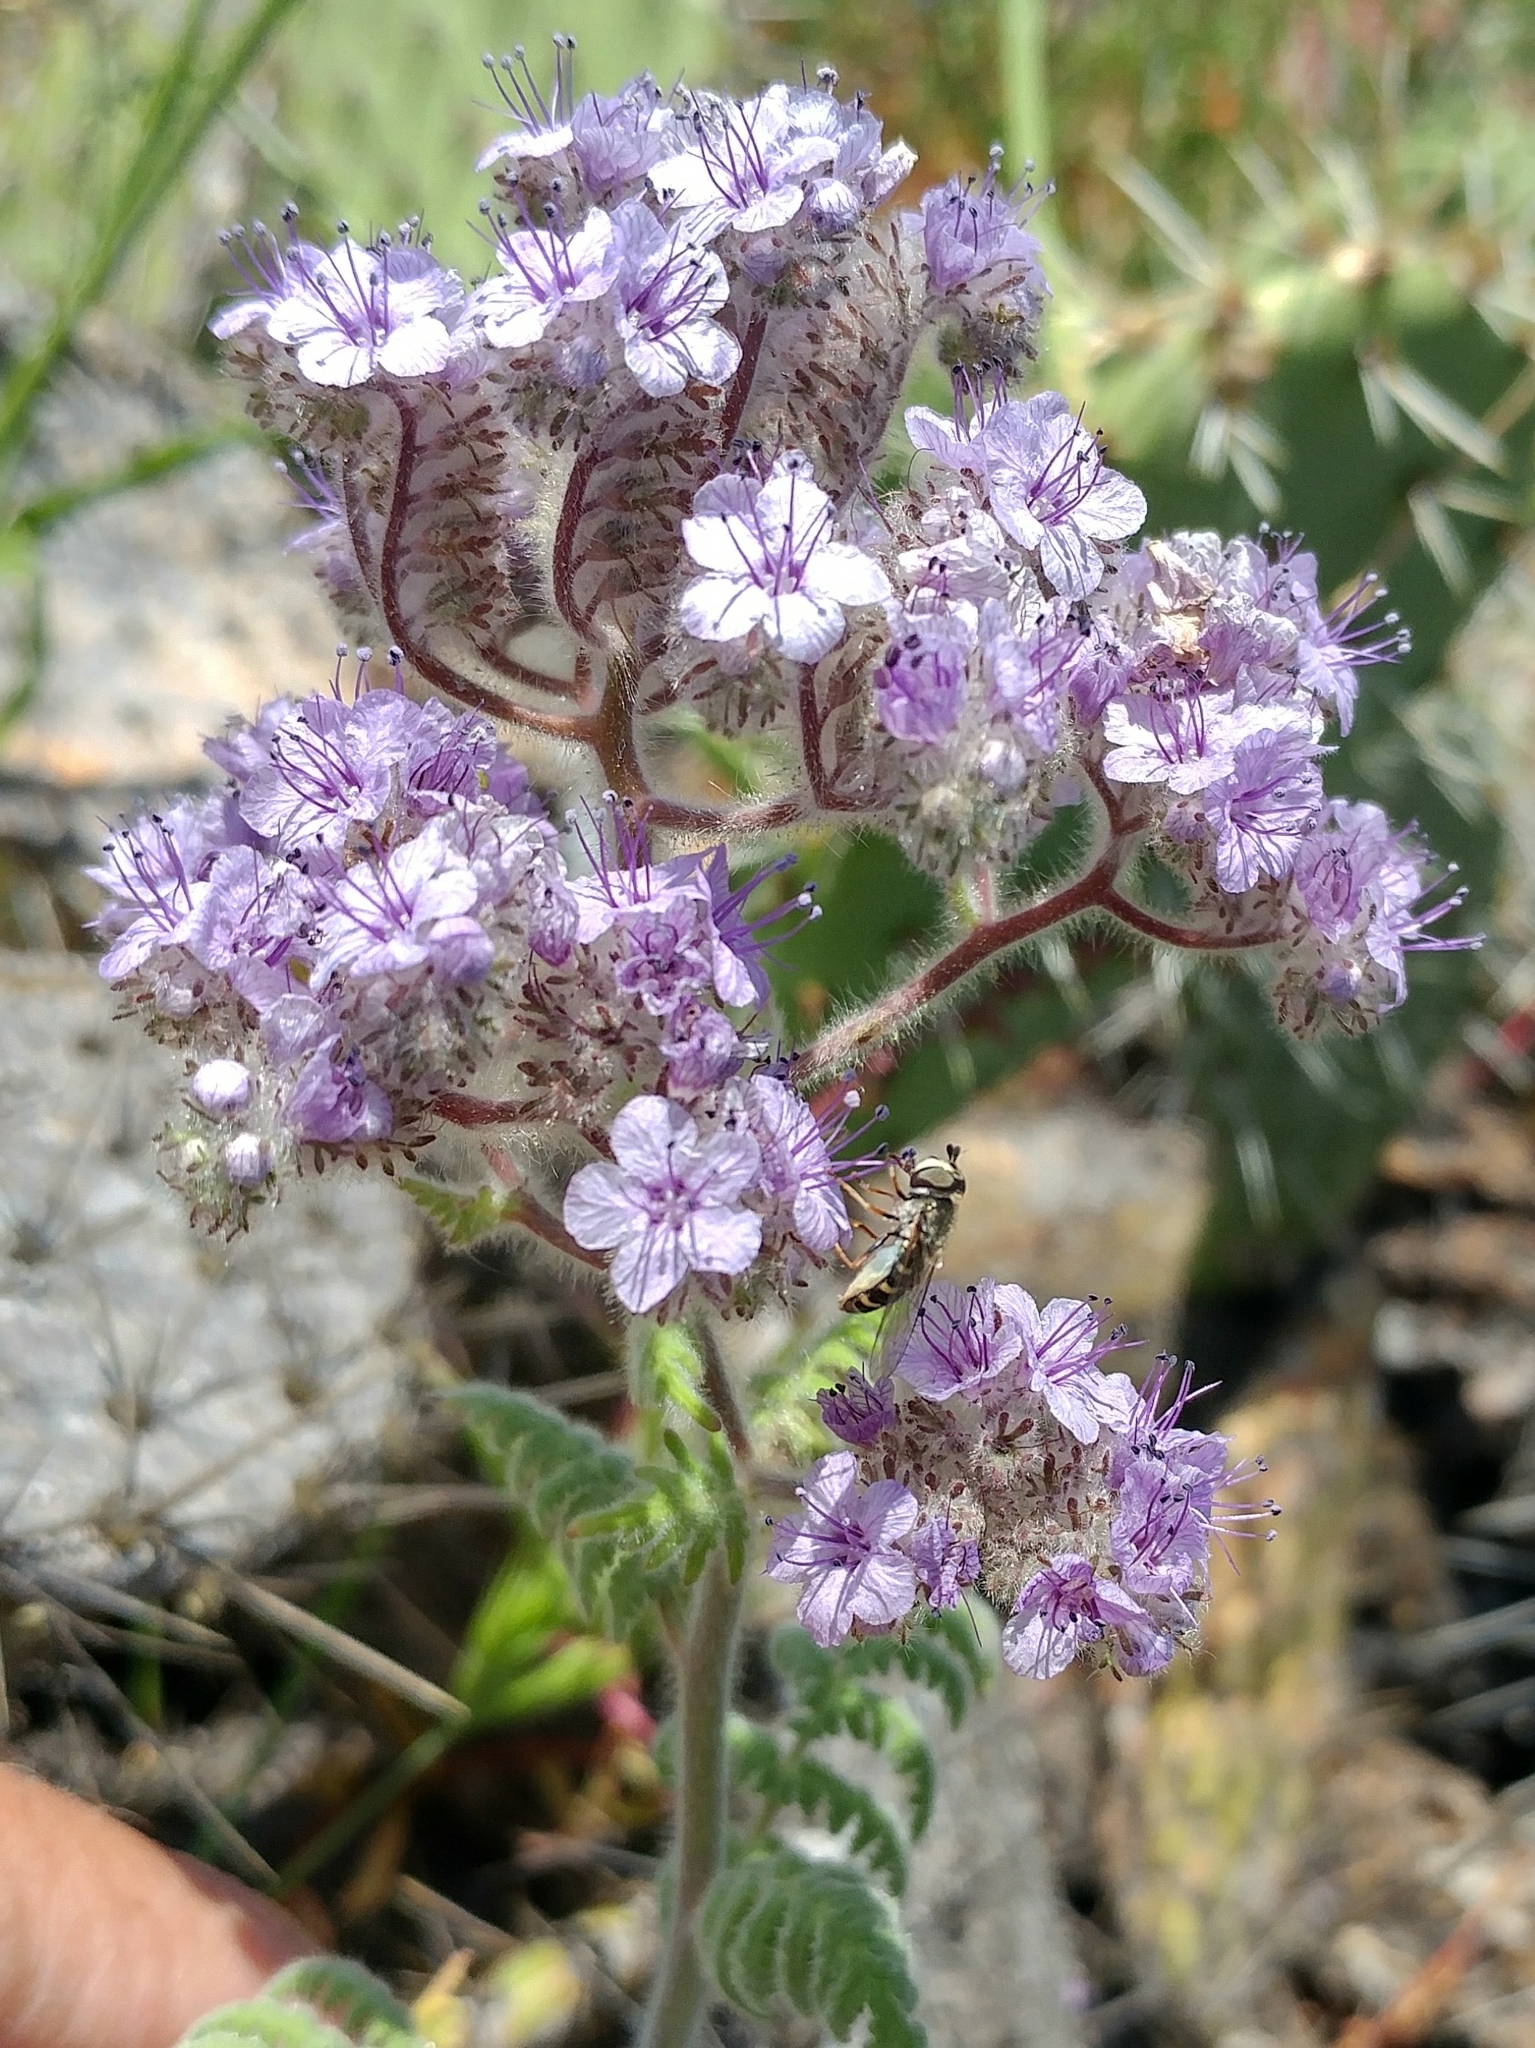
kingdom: Plantae
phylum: Tracheophyta
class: Magnoliopsida
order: Boraginales
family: Hydrophyllaceae
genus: Phacelia
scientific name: Phacelia floribunda
